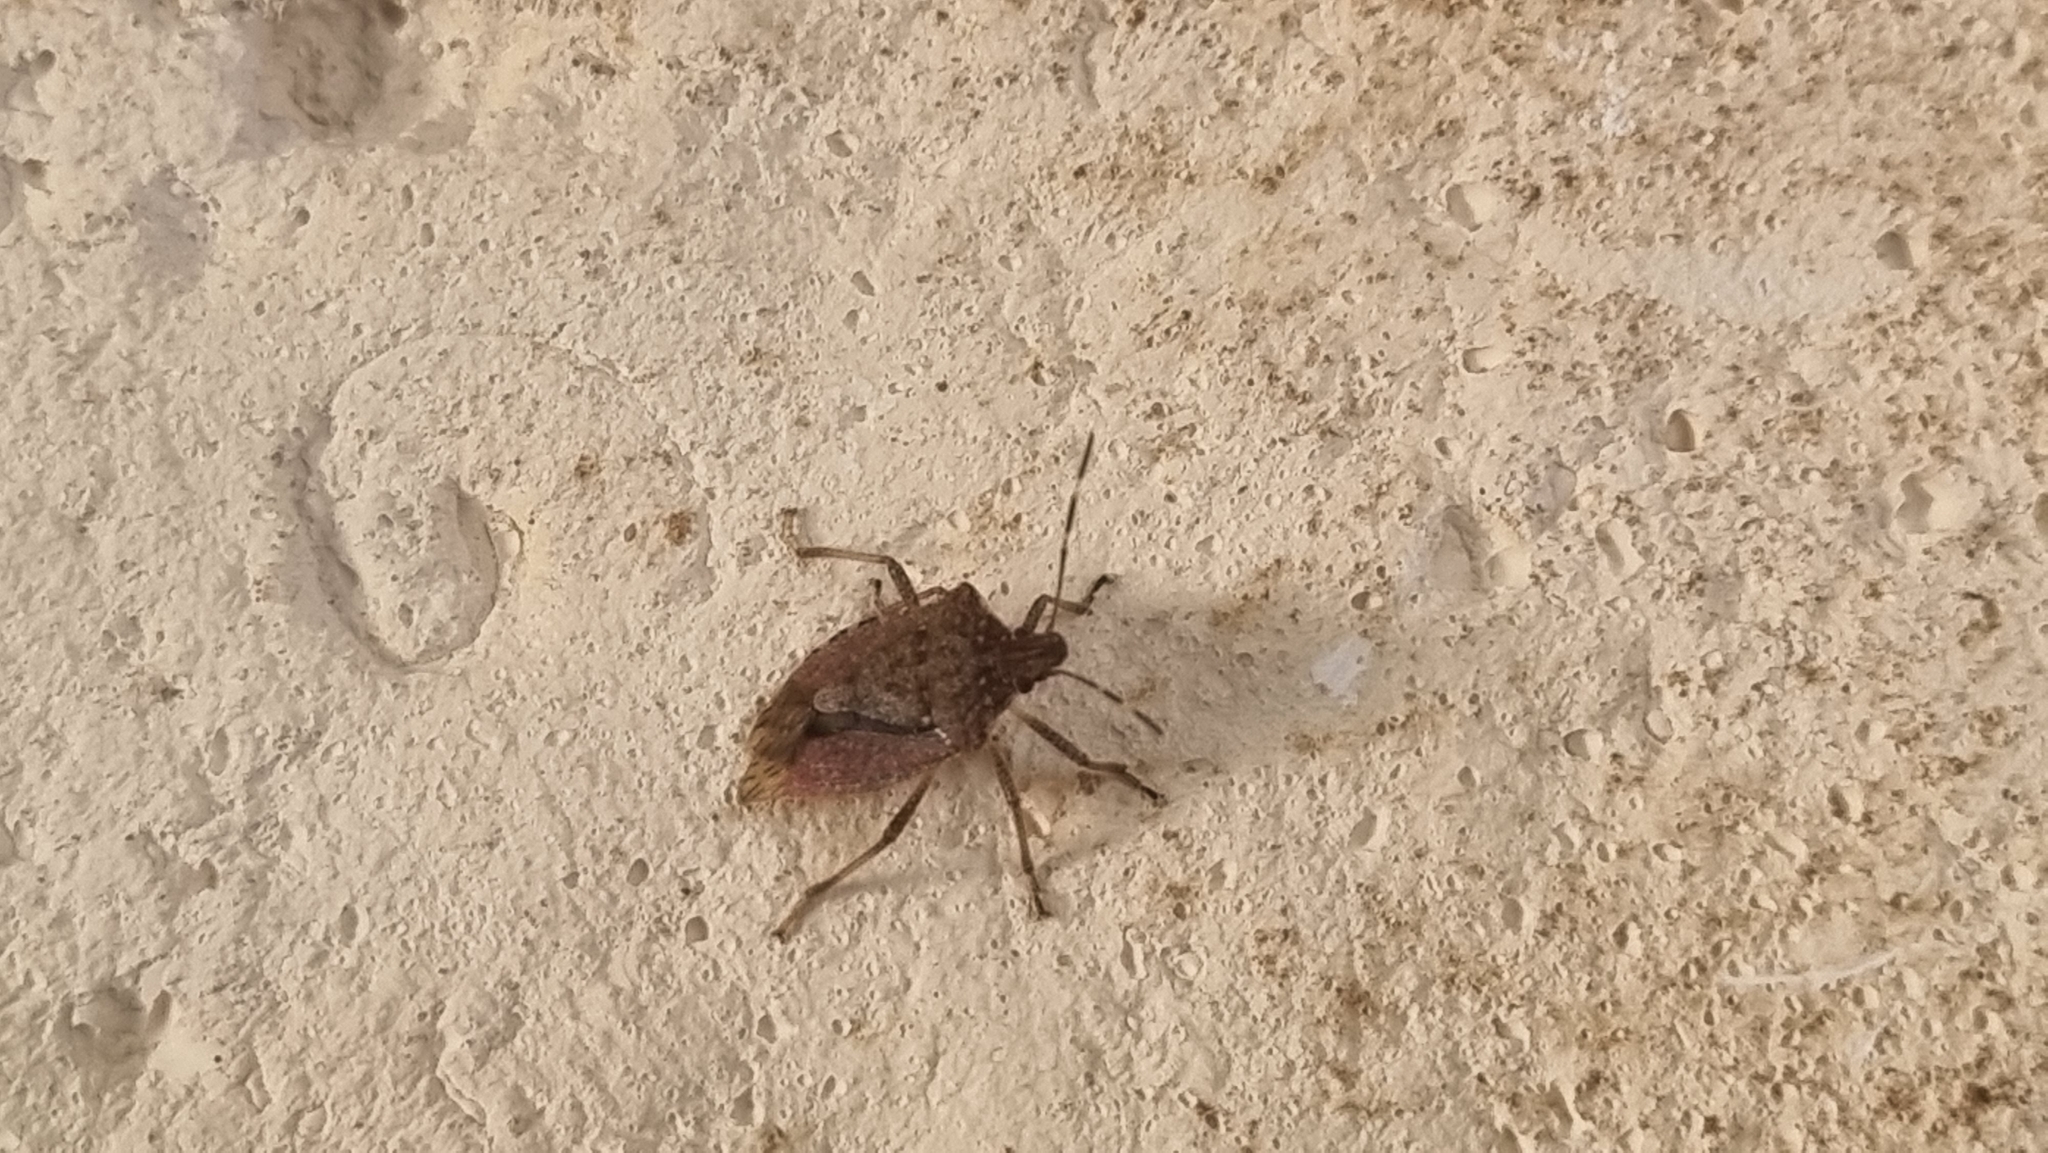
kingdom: Animalia
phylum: Arthropoda
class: Insecta
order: Hemiptera
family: Pentatomidae
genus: Halyomorpha
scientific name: Halyomorpha halys
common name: Brown marmorated stink bug
